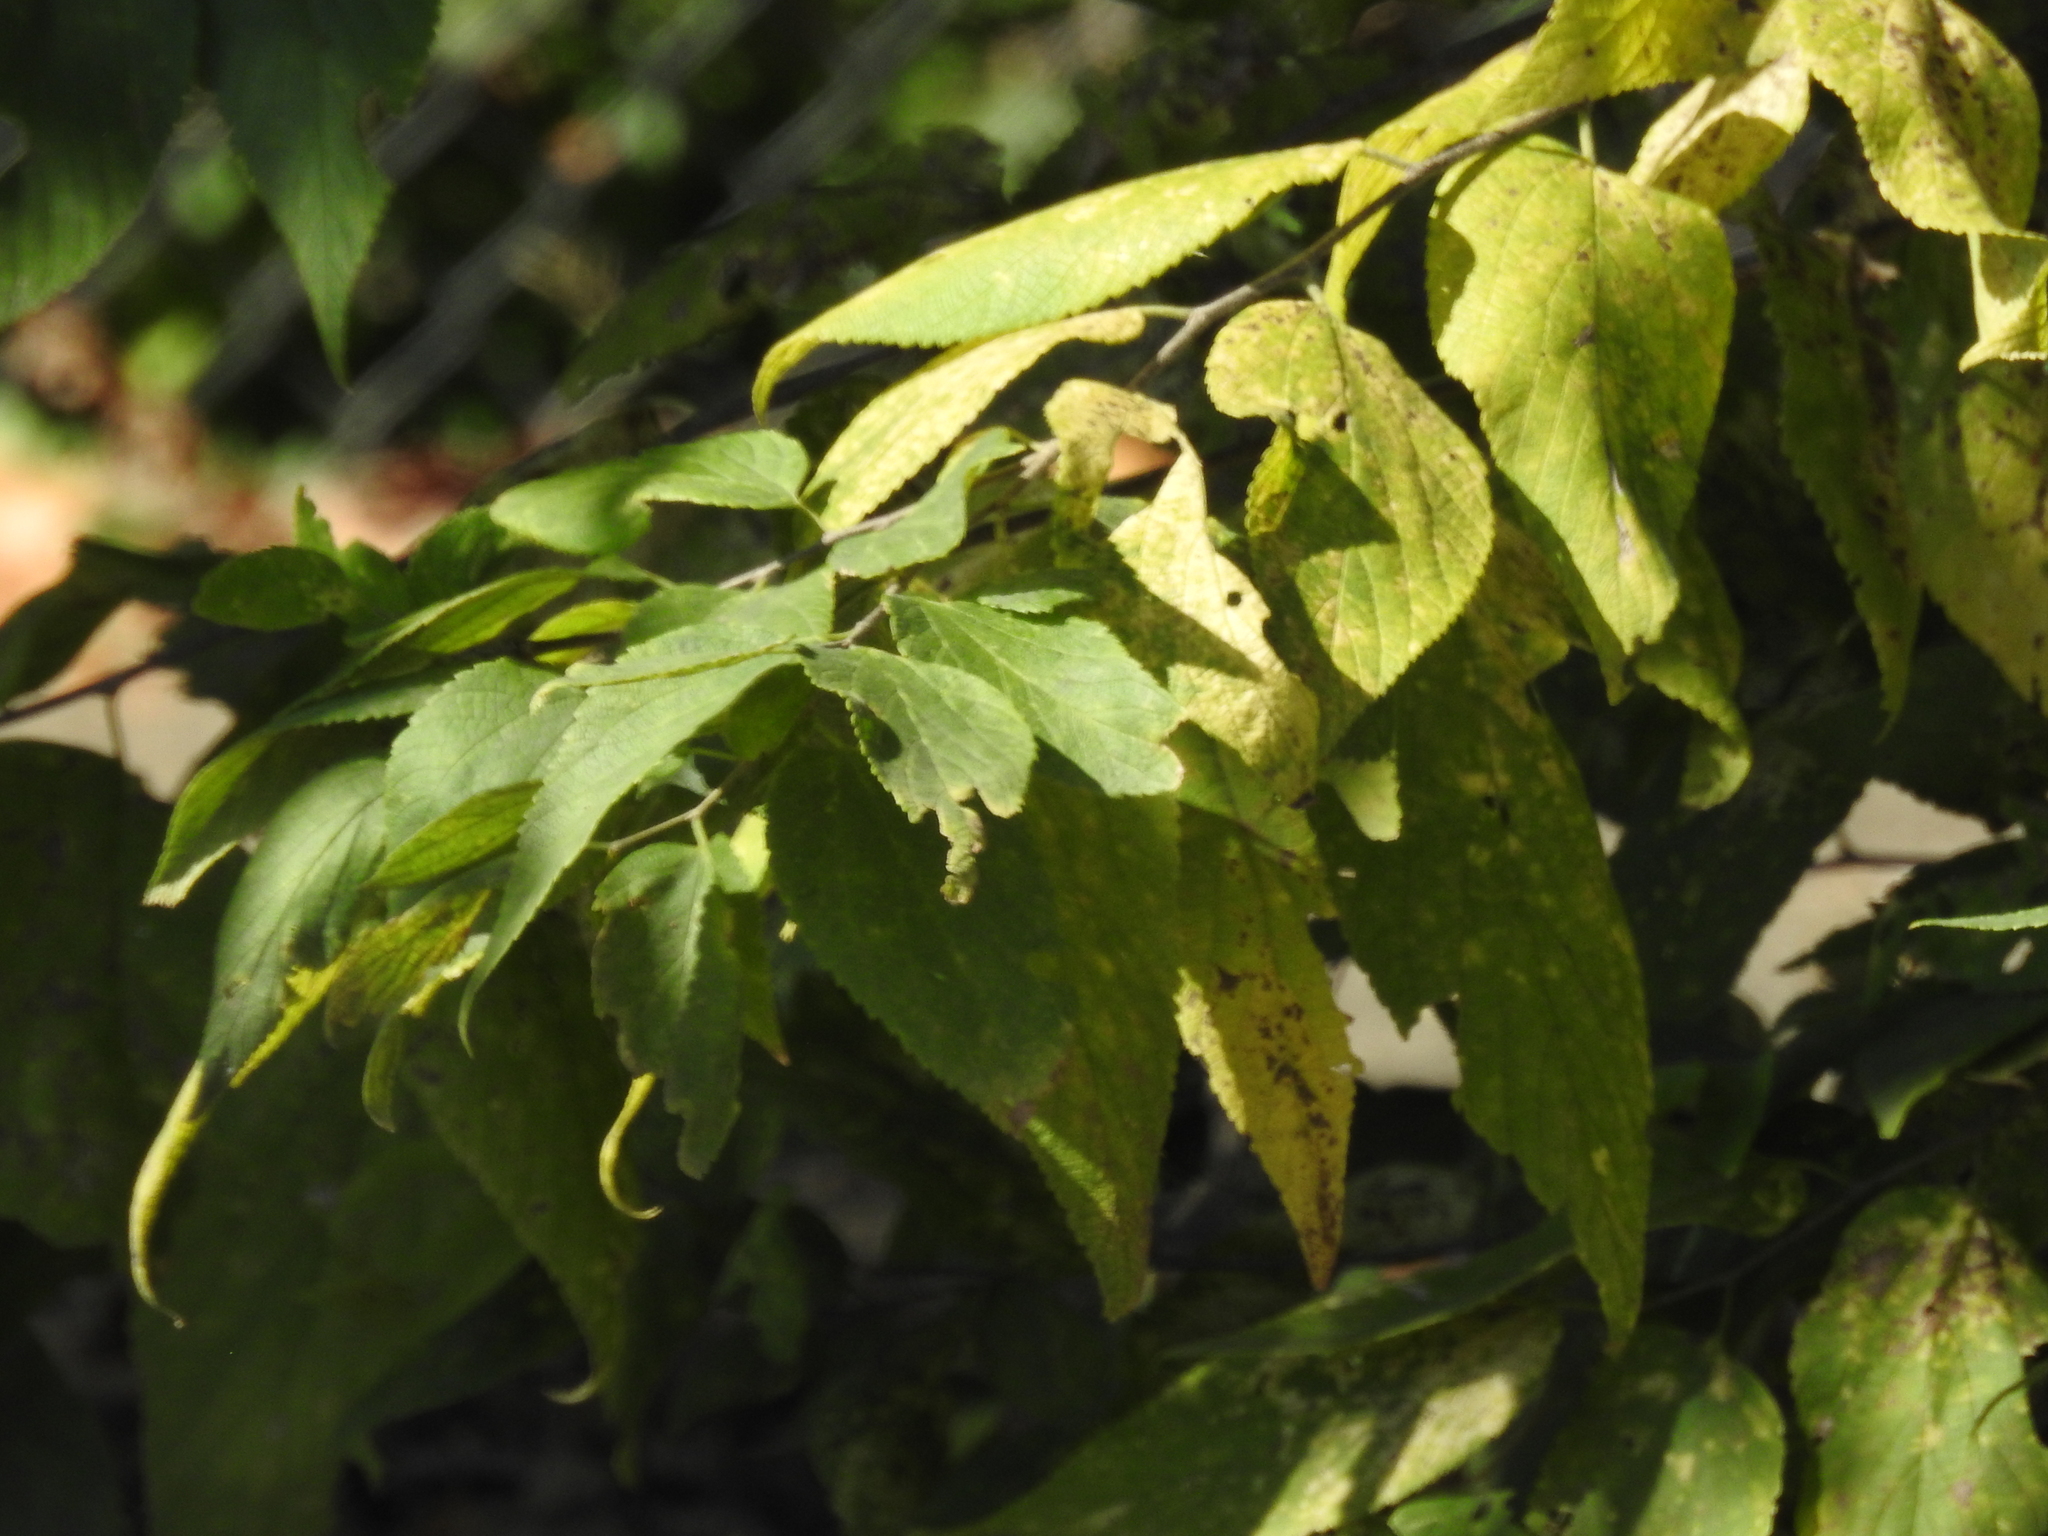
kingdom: Plantae
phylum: Tracheophyta
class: Magnoliopsida
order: Rosales
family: Cannabaceae
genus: Celtis
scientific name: Celtis occidentalis
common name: Common hackberry
